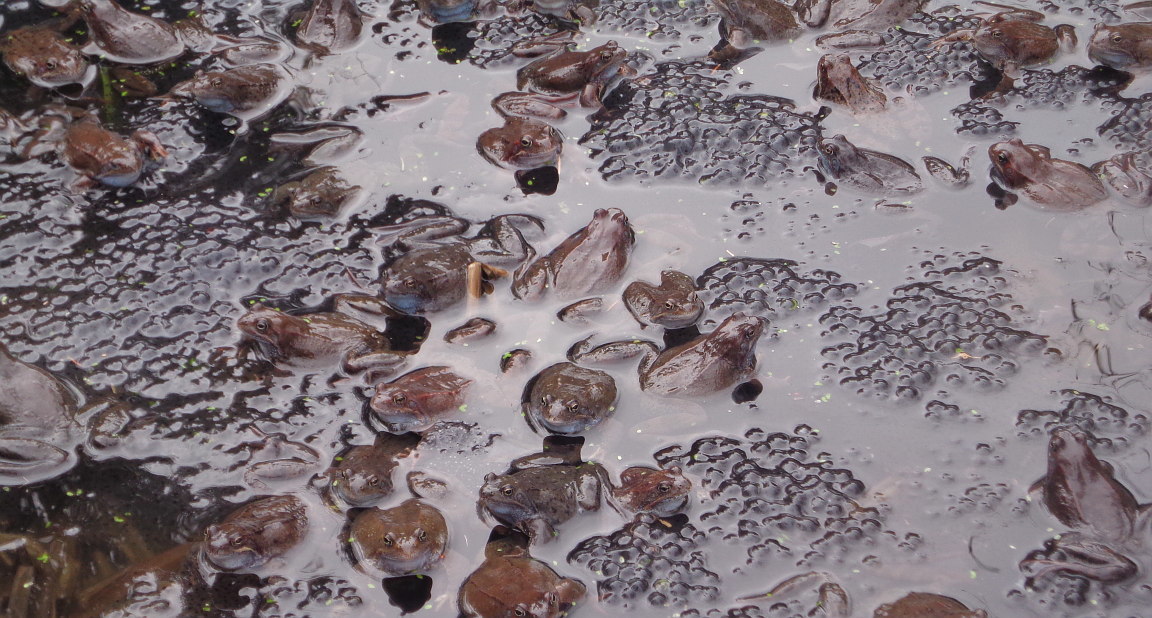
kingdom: Animalia
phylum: Chordata
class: Amphibia
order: Anura
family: Ranidae
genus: Rana
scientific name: Rana temporaria
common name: Common frog
